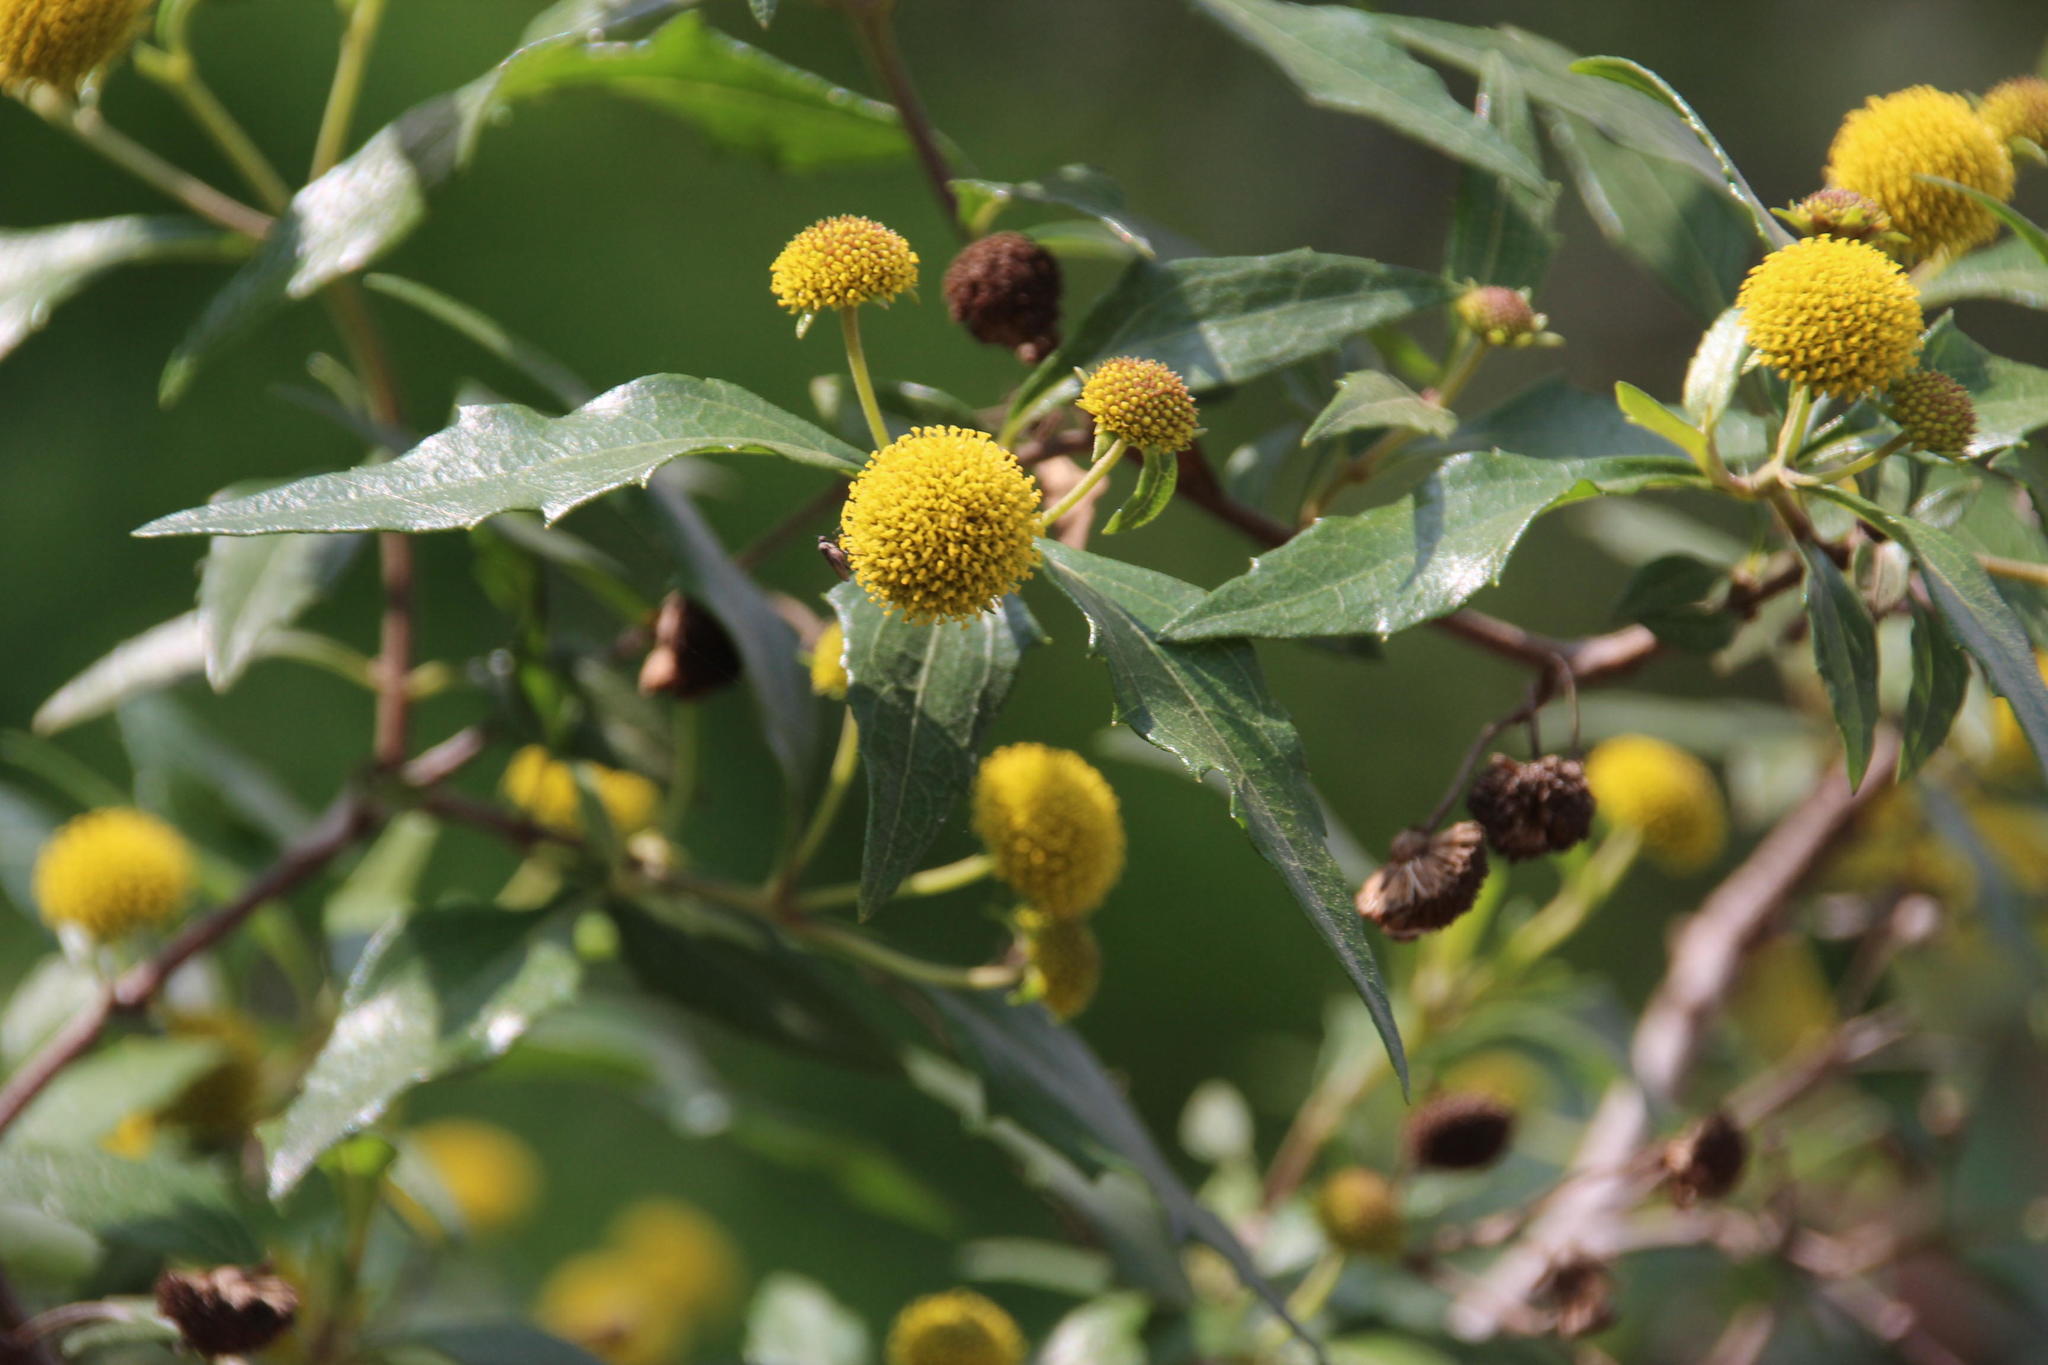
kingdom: Plantae
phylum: Tracheophyta
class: Magnoliopsida
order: Asterales
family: Asteraceae
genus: Podanthus
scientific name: Podanthus mitiqui
